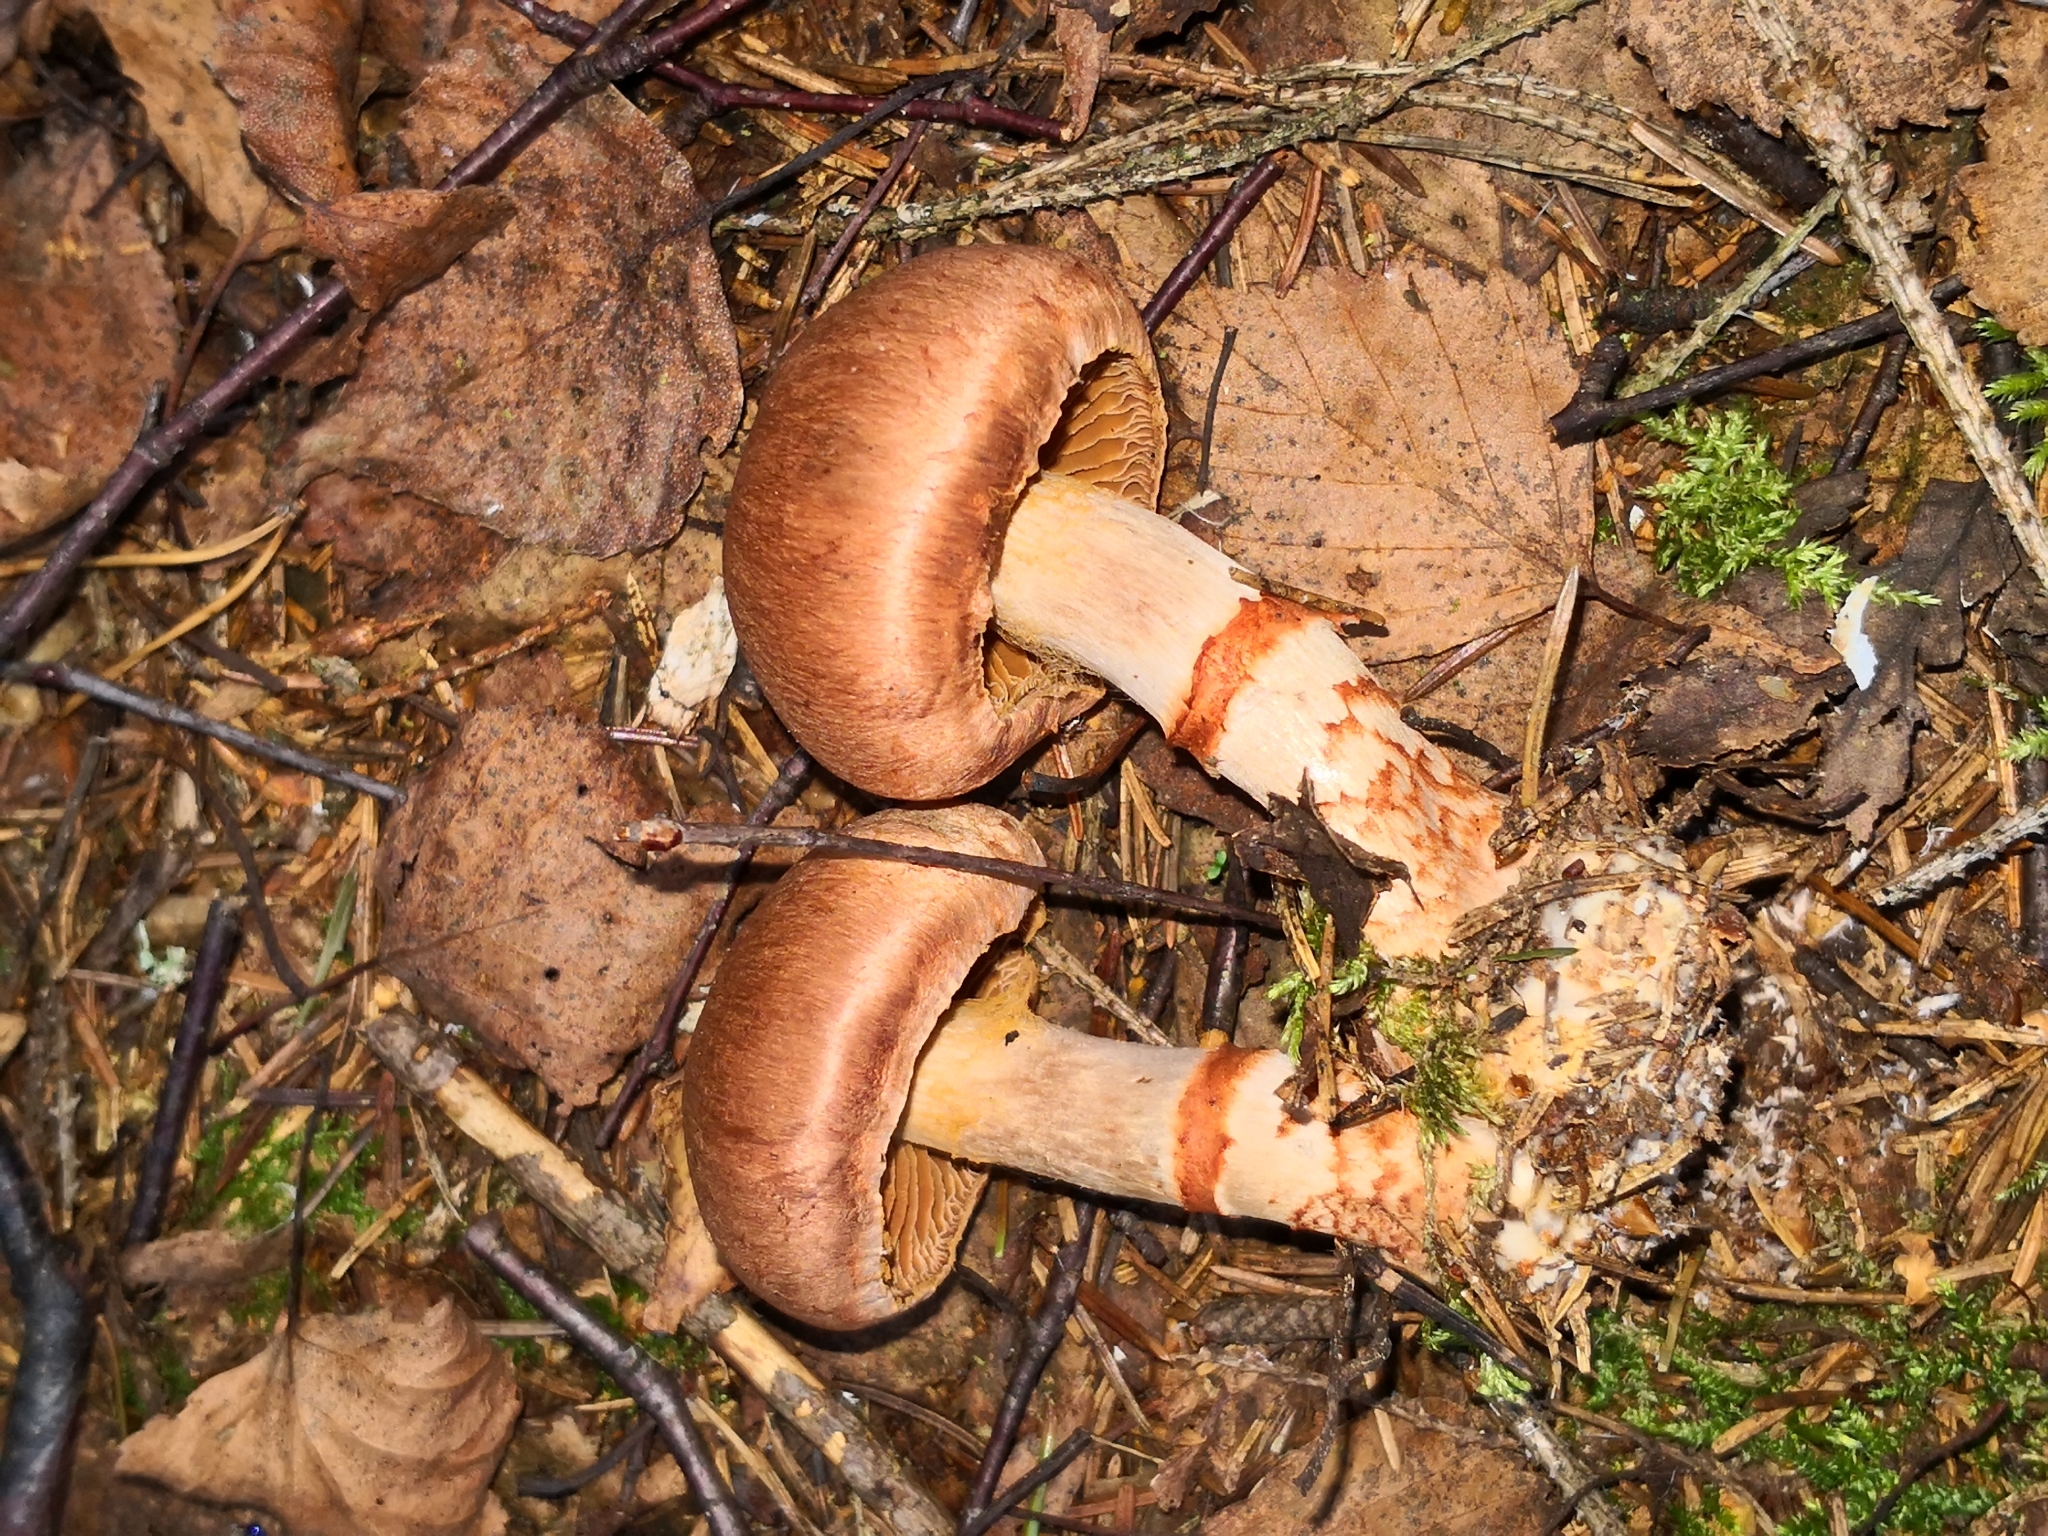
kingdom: Fungi
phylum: Basidiomycota
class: Agaricomycetes
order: Agaricales
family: Cortinariaceae
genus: Cortinarius
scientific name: Cortinarius armillatus
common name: Red banded webcap
